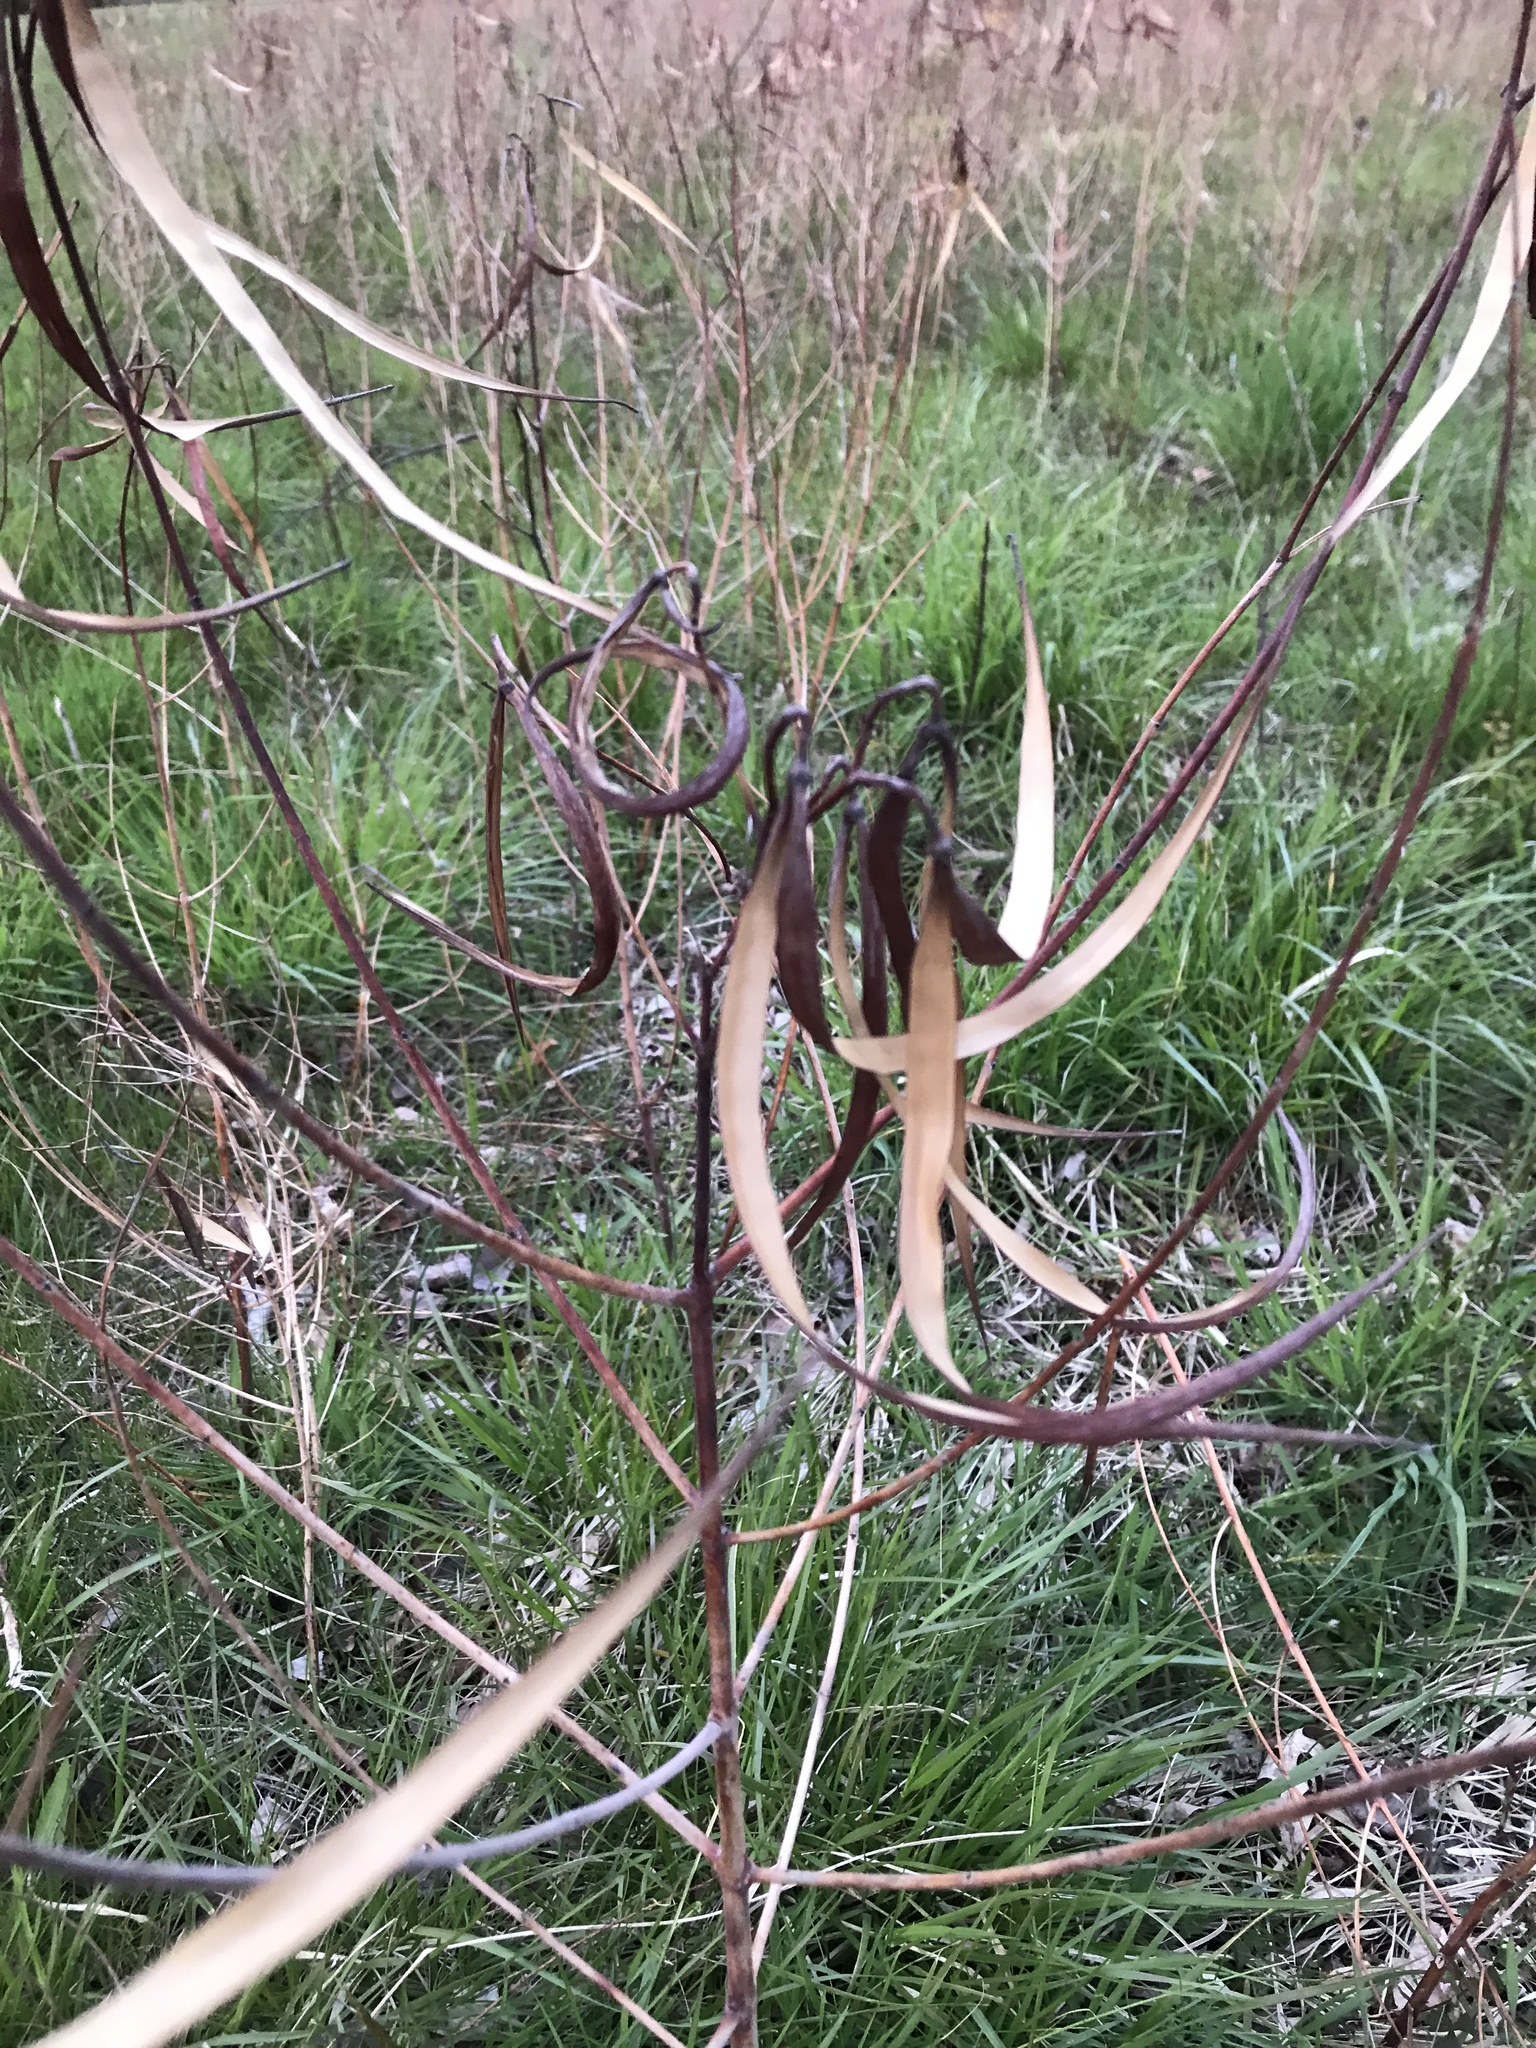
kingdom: Plantae
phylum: Tracheophyta
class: Magnoliopsida
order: Gentianales
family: Apocynaceae
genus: Apocynum
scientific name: Apocynum cannabinum
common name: Hemp dogbane
